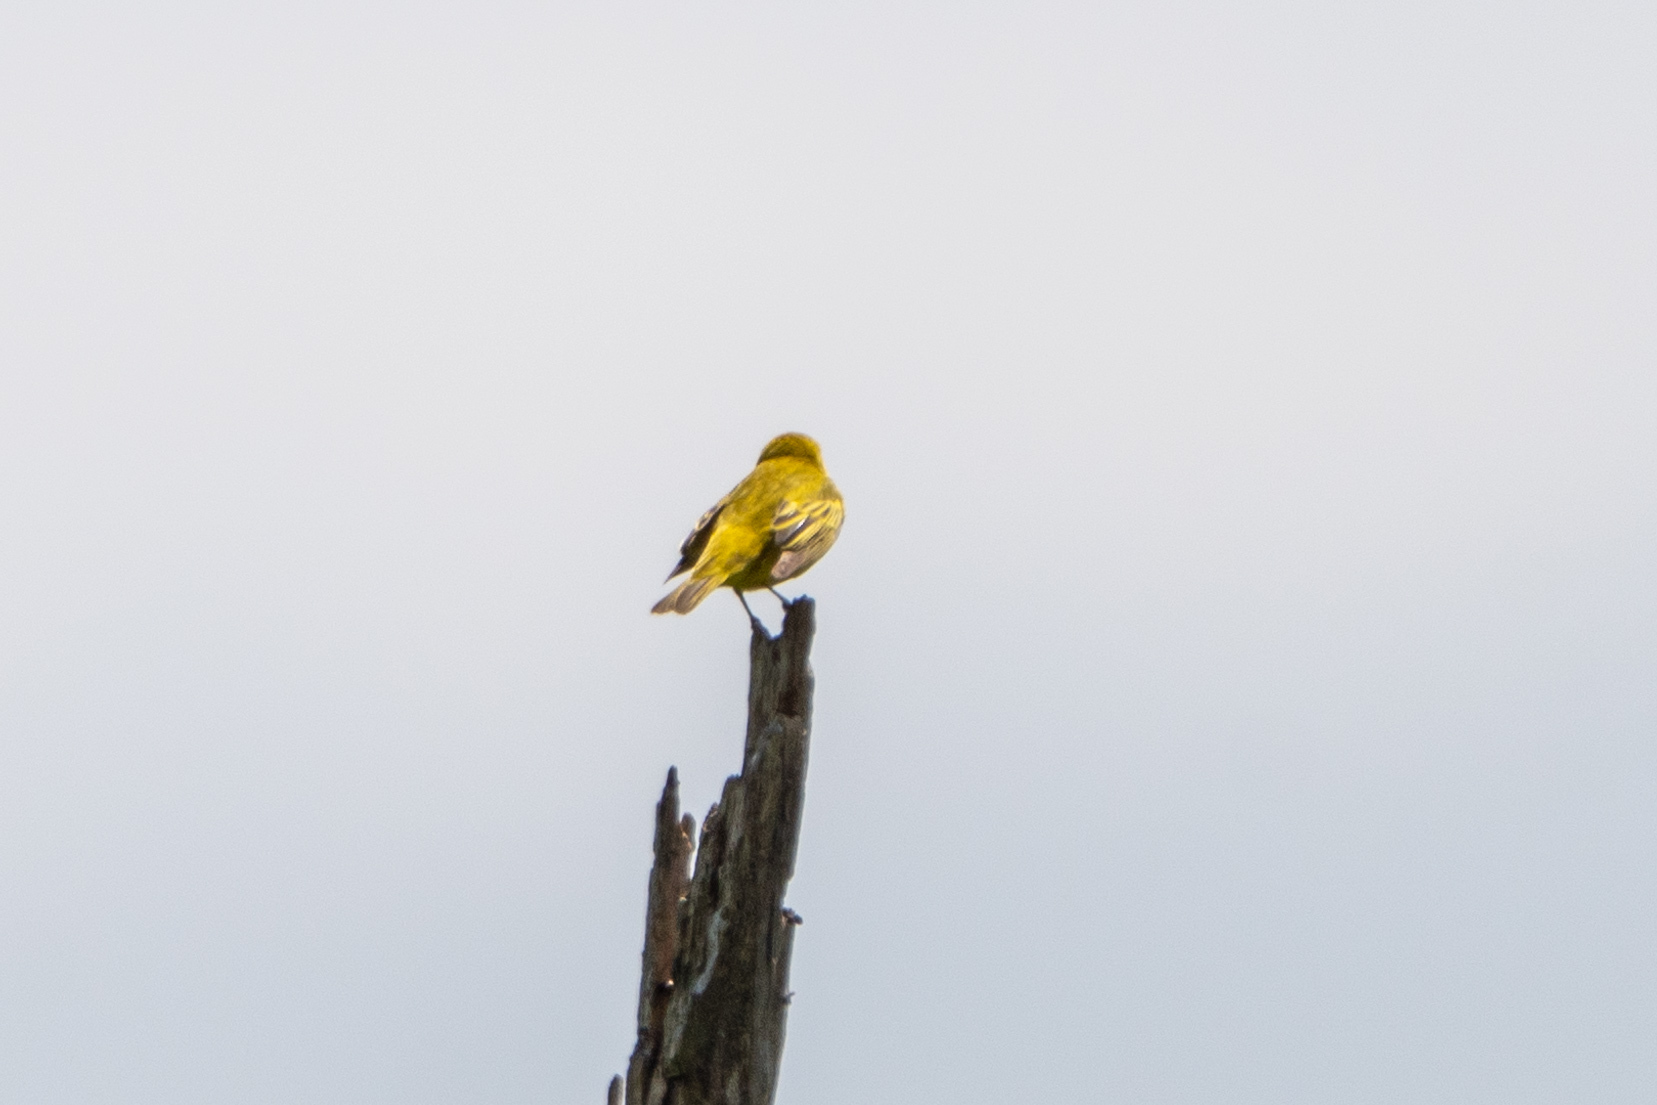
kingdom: Animalia
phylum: Chordata
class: Aves
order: Passeriformes
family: Parulidae
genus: Setophaga
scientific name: Setophaga petechia
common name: Yellow warbler
